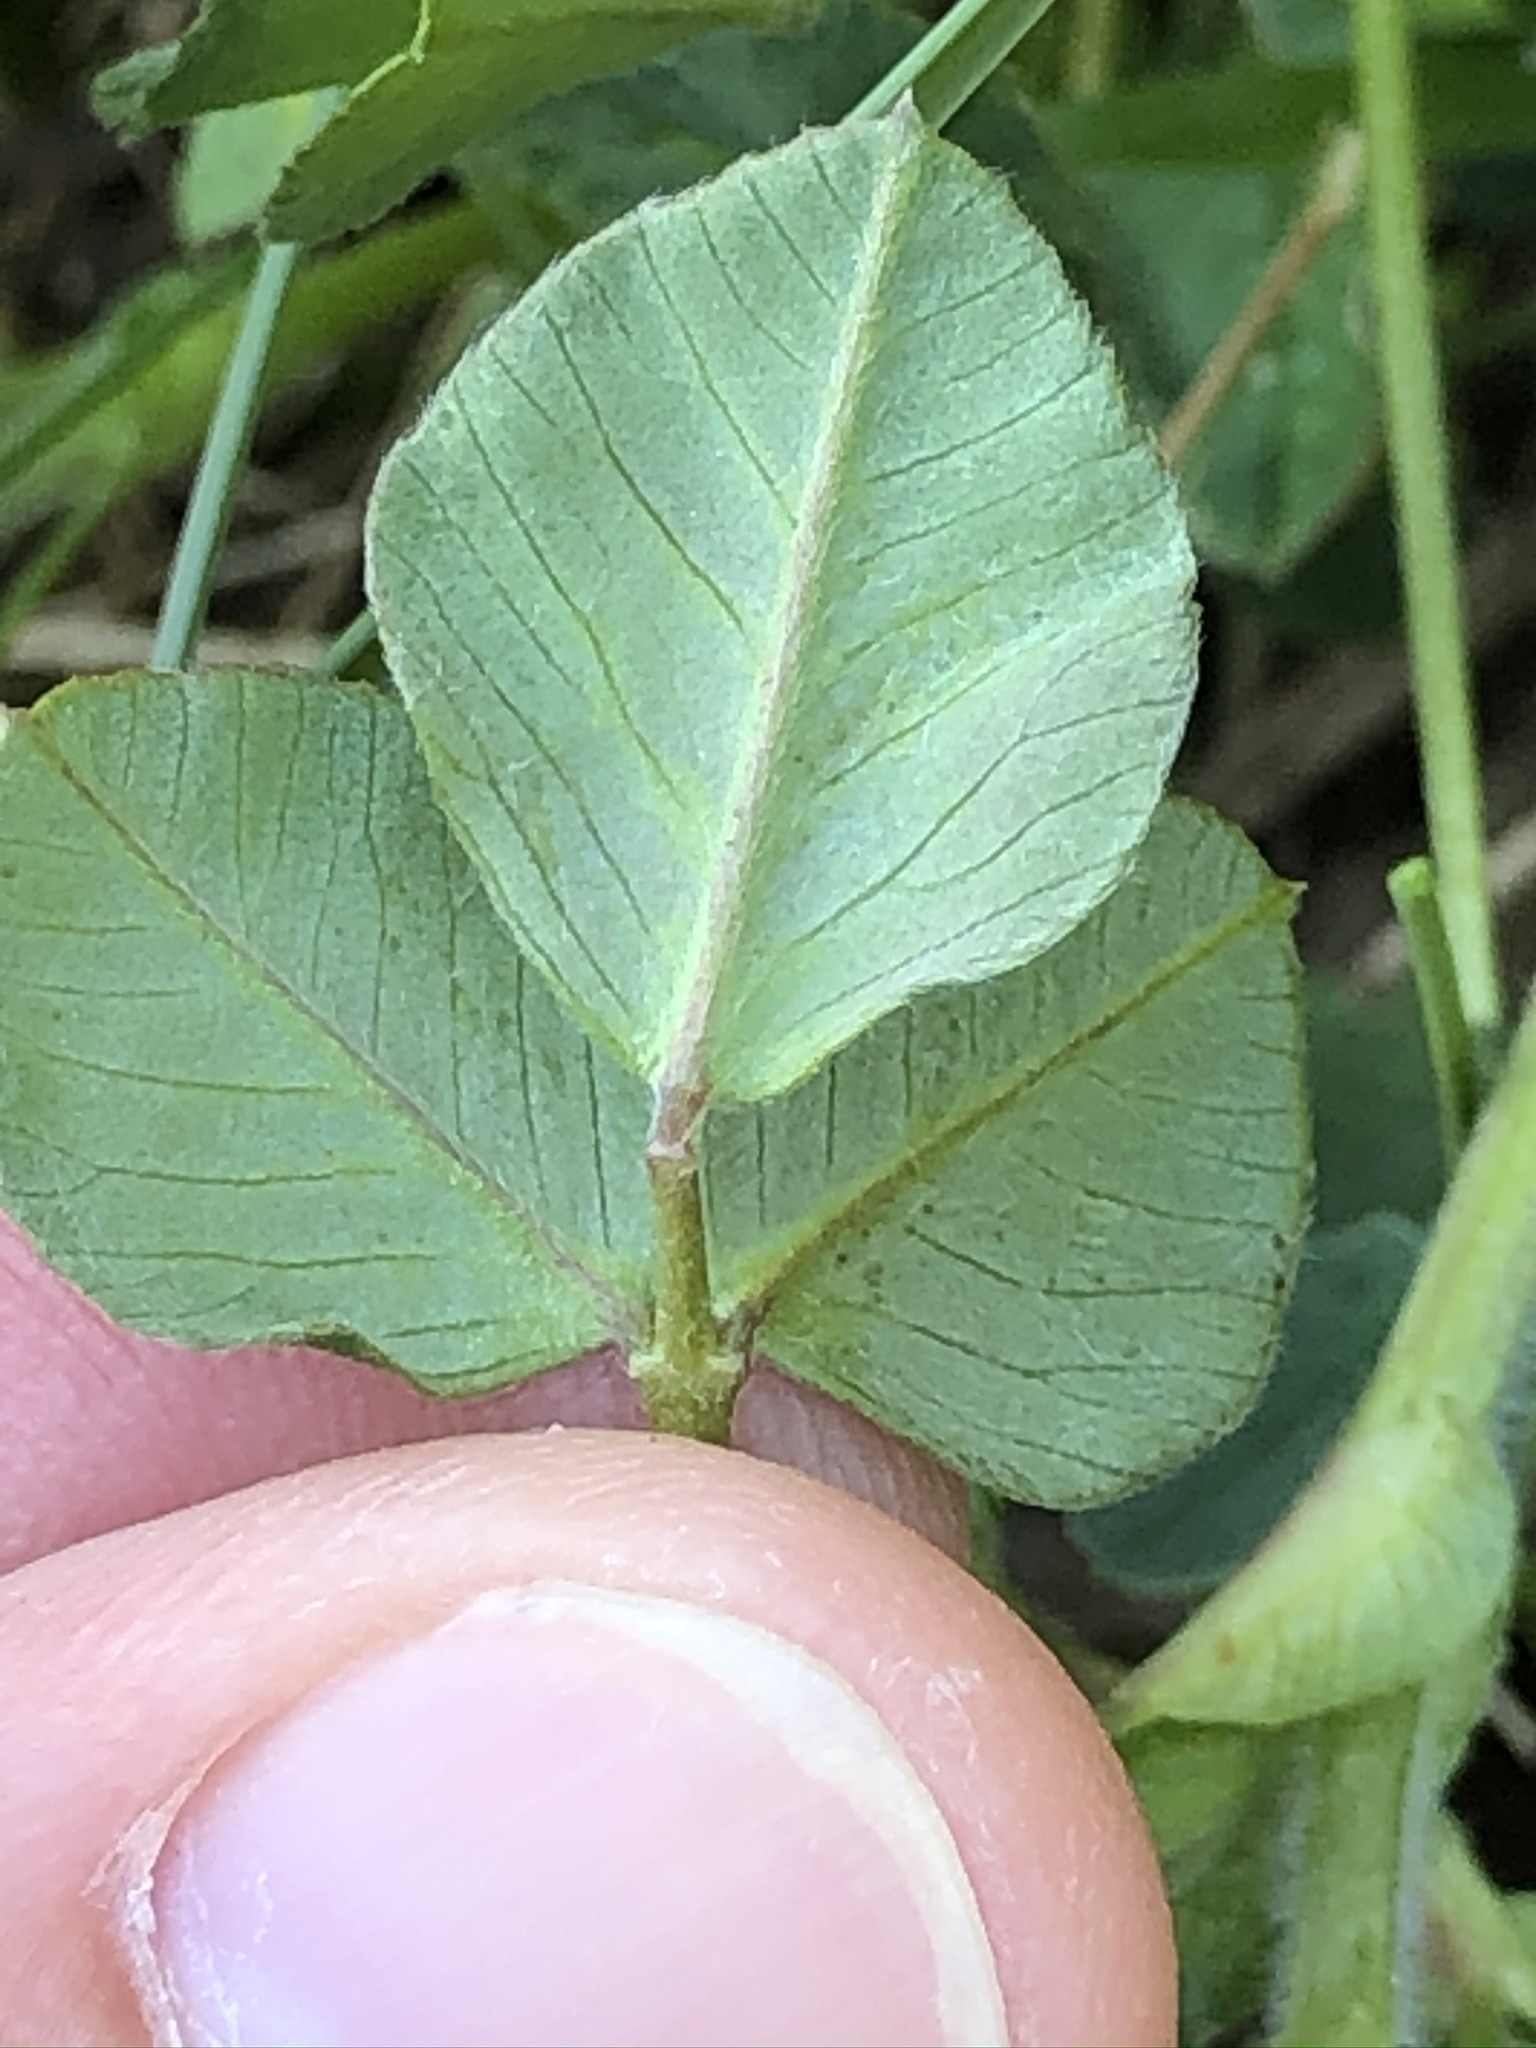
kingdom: Plantae
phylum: Tracheophyta
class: Magnoliopsida
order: Fabales
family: Fabaceae
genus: Medicago
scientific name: Medicago lupulina
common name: Black medick
